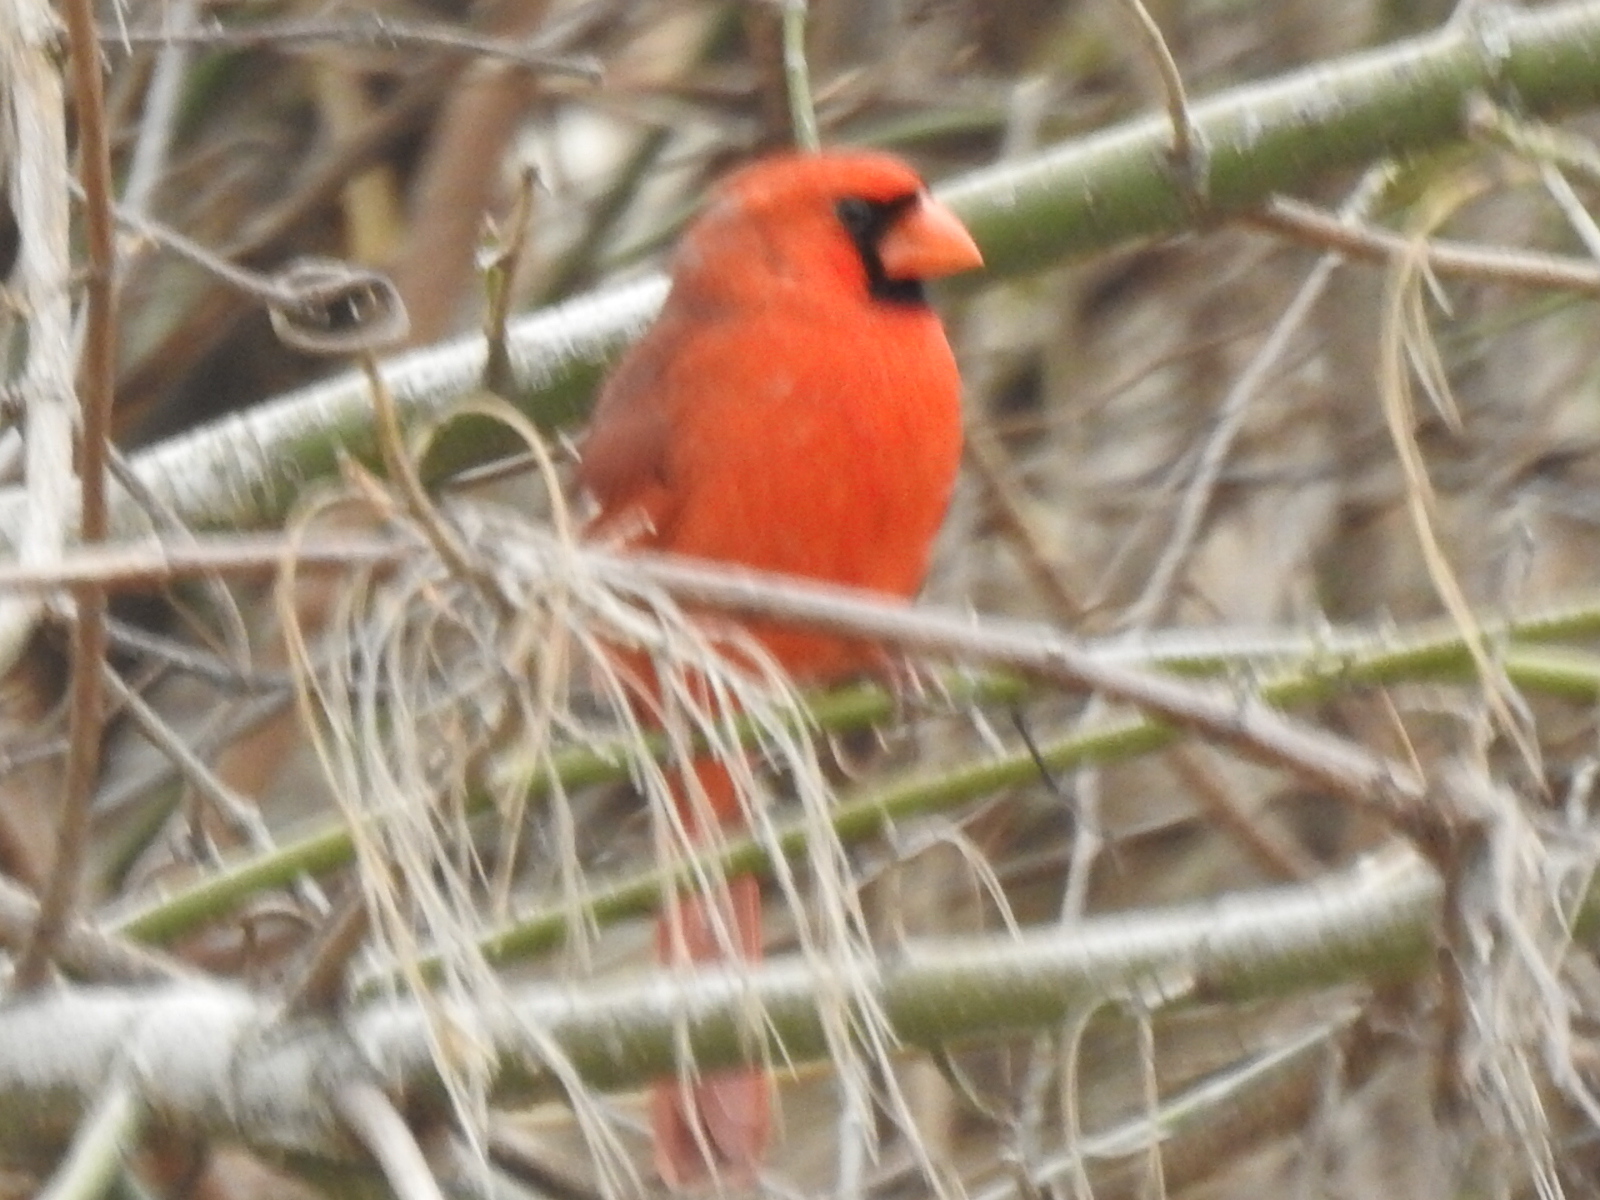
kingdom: Animalia
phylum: Chordata
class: Aves
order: Passeriformes
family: Cardinalidae
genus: Cardinalis
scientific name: Cardinalis cardinalis
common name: Northern cardinal
